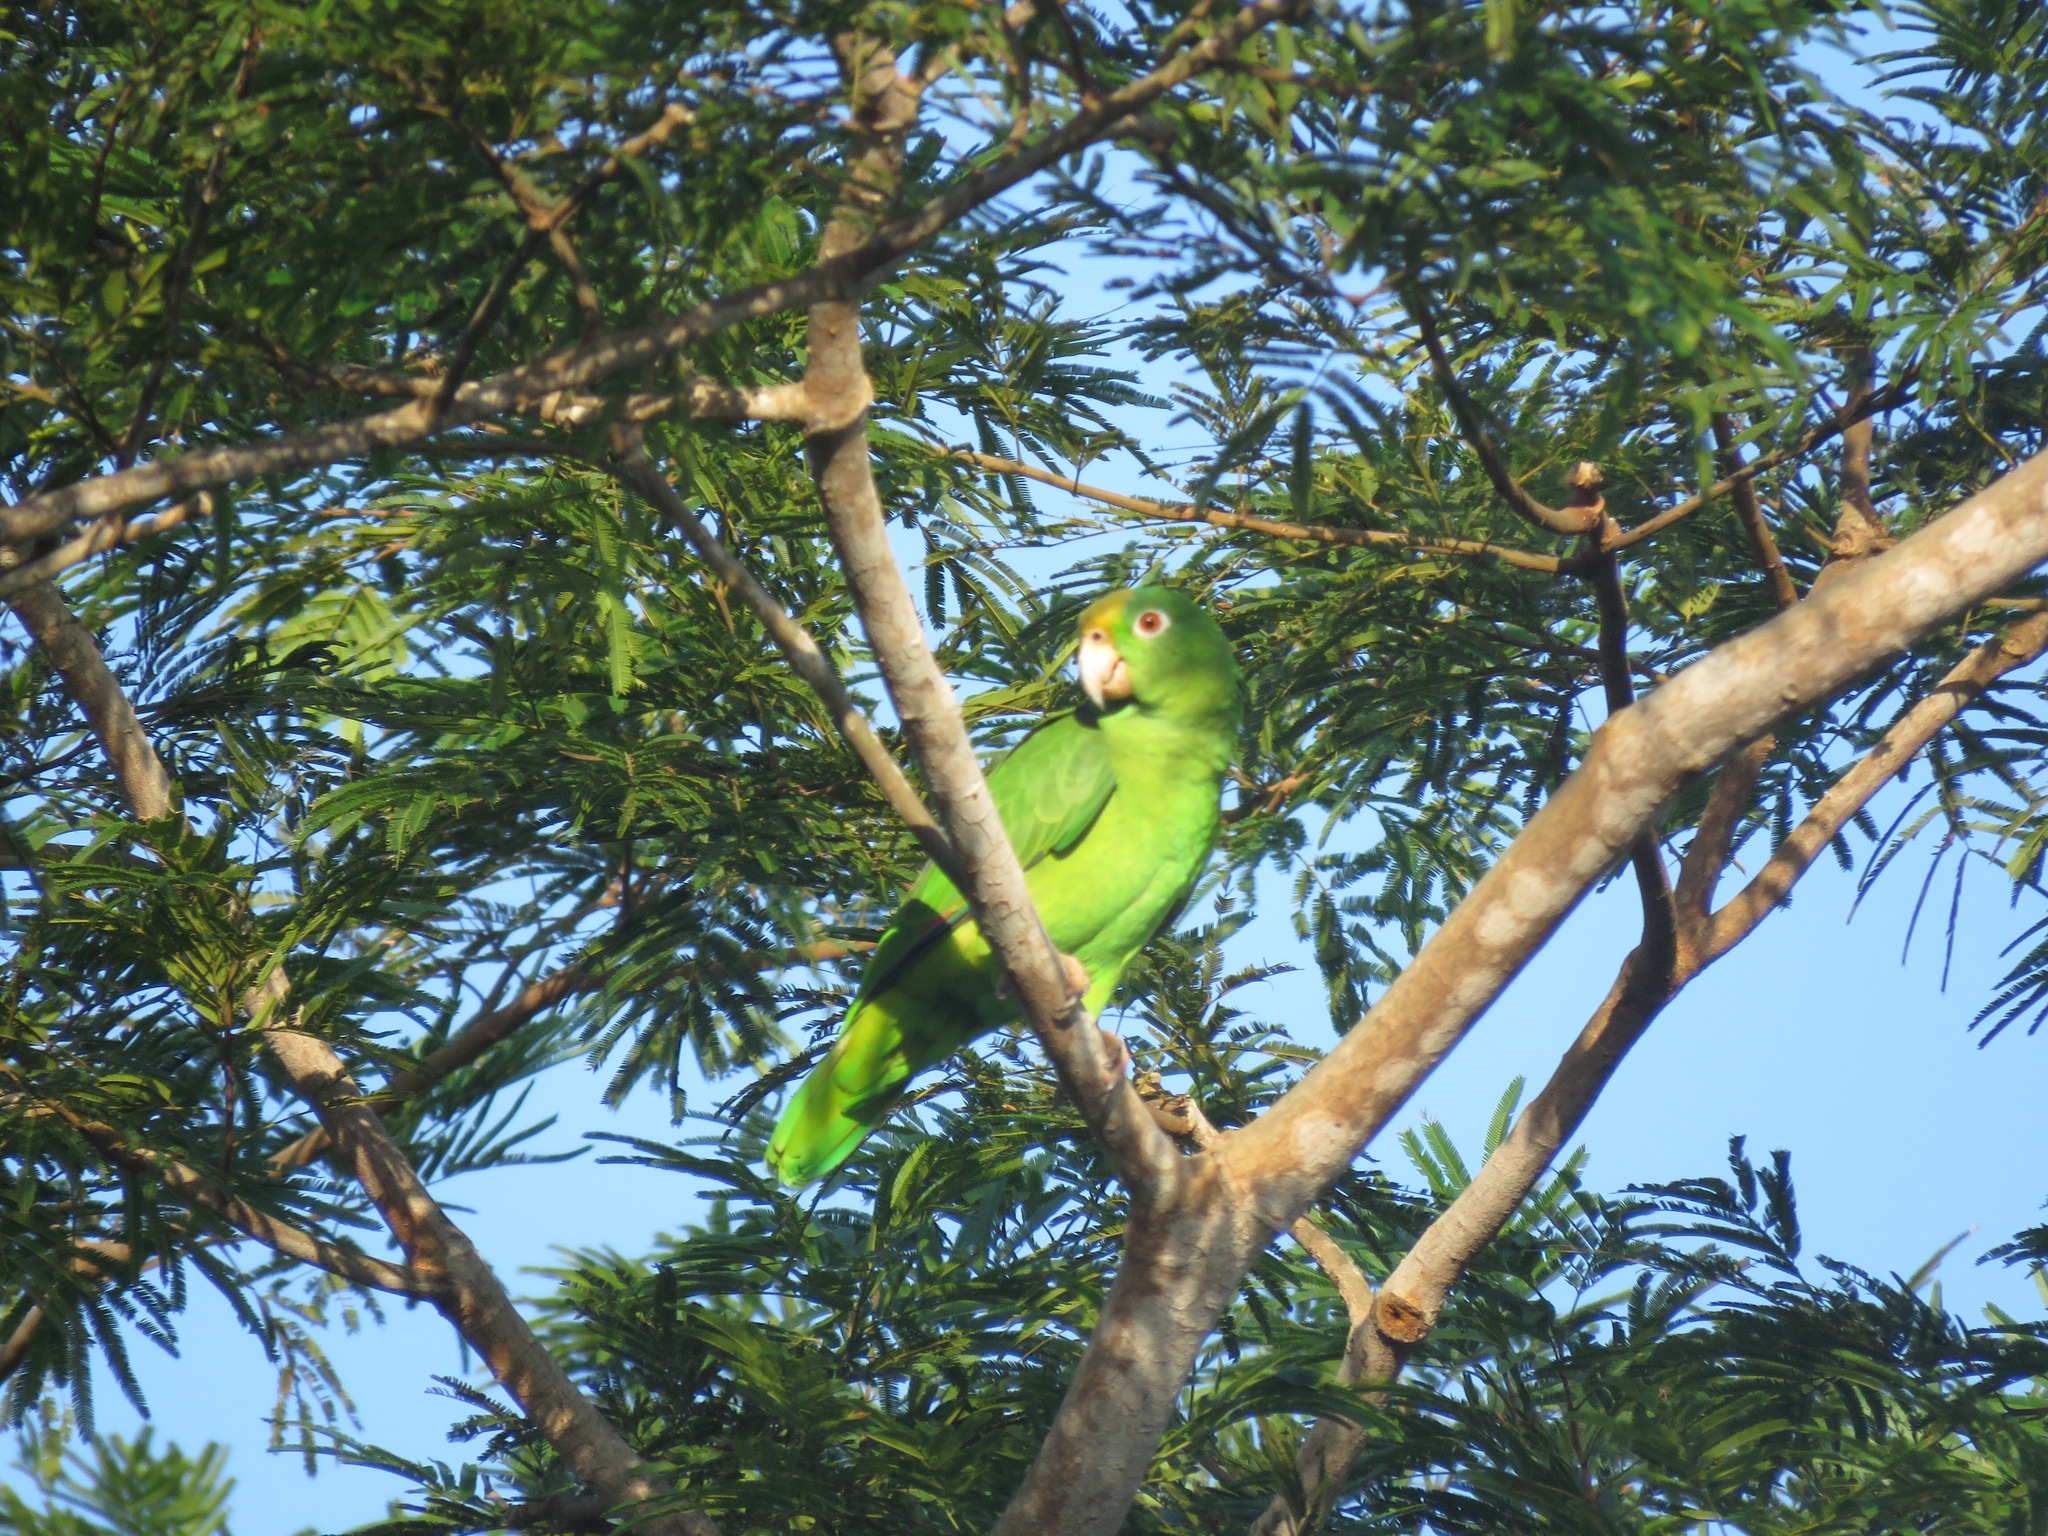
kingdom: Animalia
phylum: Chordata
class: Aves
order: Psittaciformes
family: Psittacidae
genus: Amazona
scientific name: Amazona ochrocephala
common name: Yellow-crowned amazon
